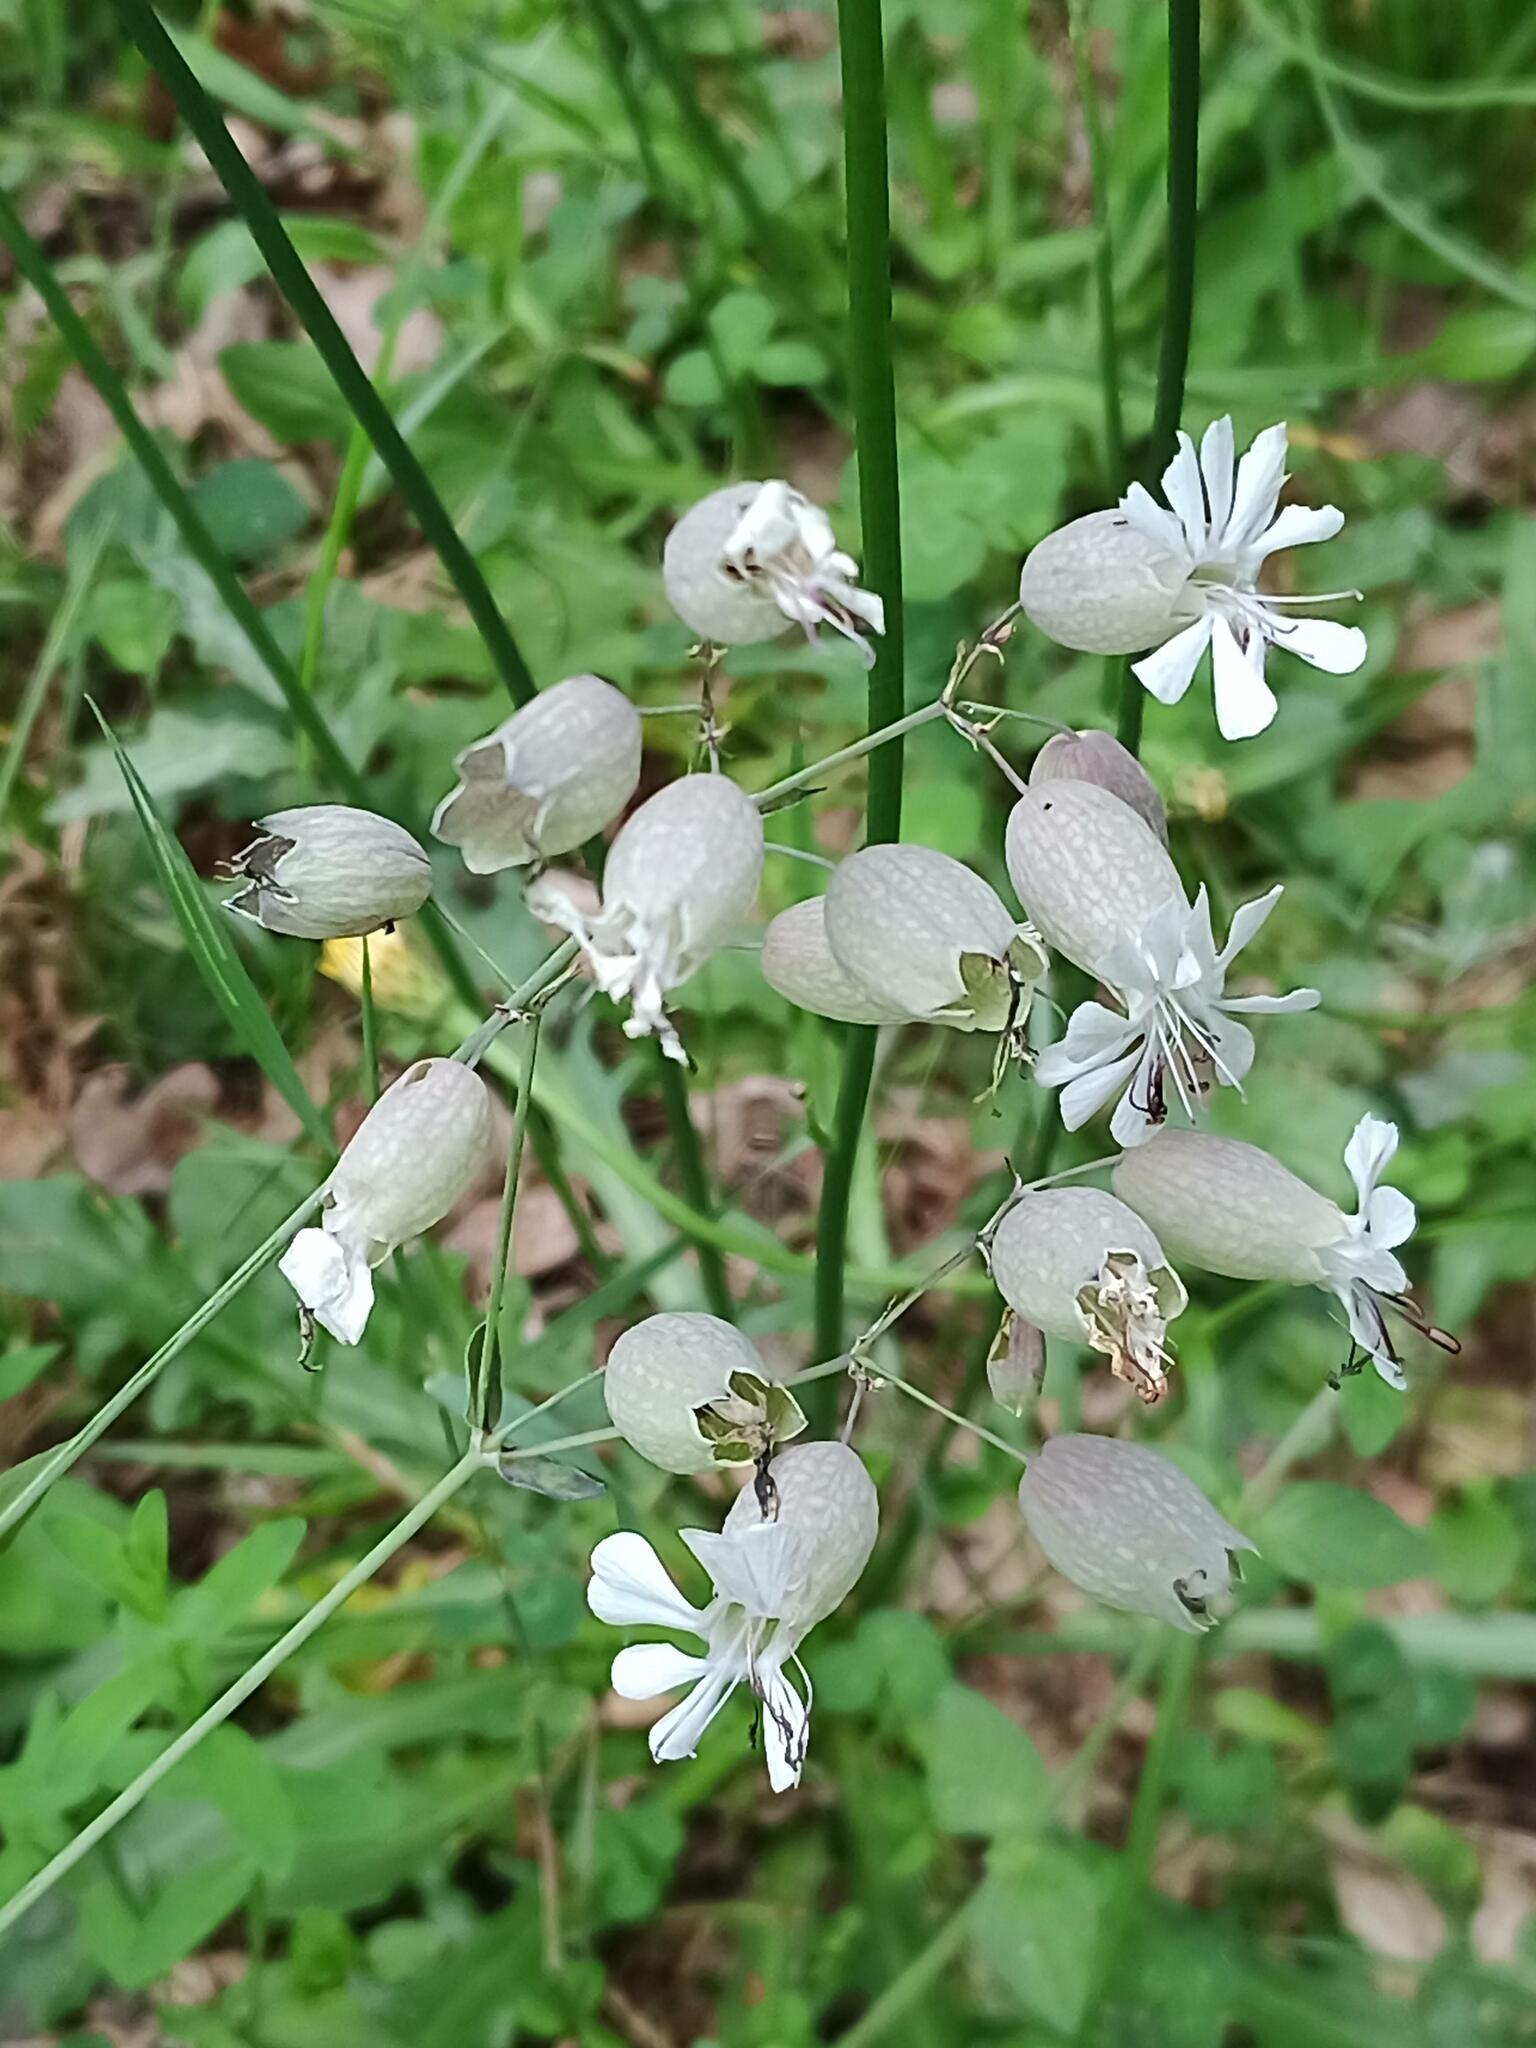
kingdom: Plantae
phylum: Tracheophyta
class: Magnoliopsida
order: Caryophyllales
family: Caryophyllaceae
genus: Silene
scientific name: Silene vulgaris
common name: Bladder campion
